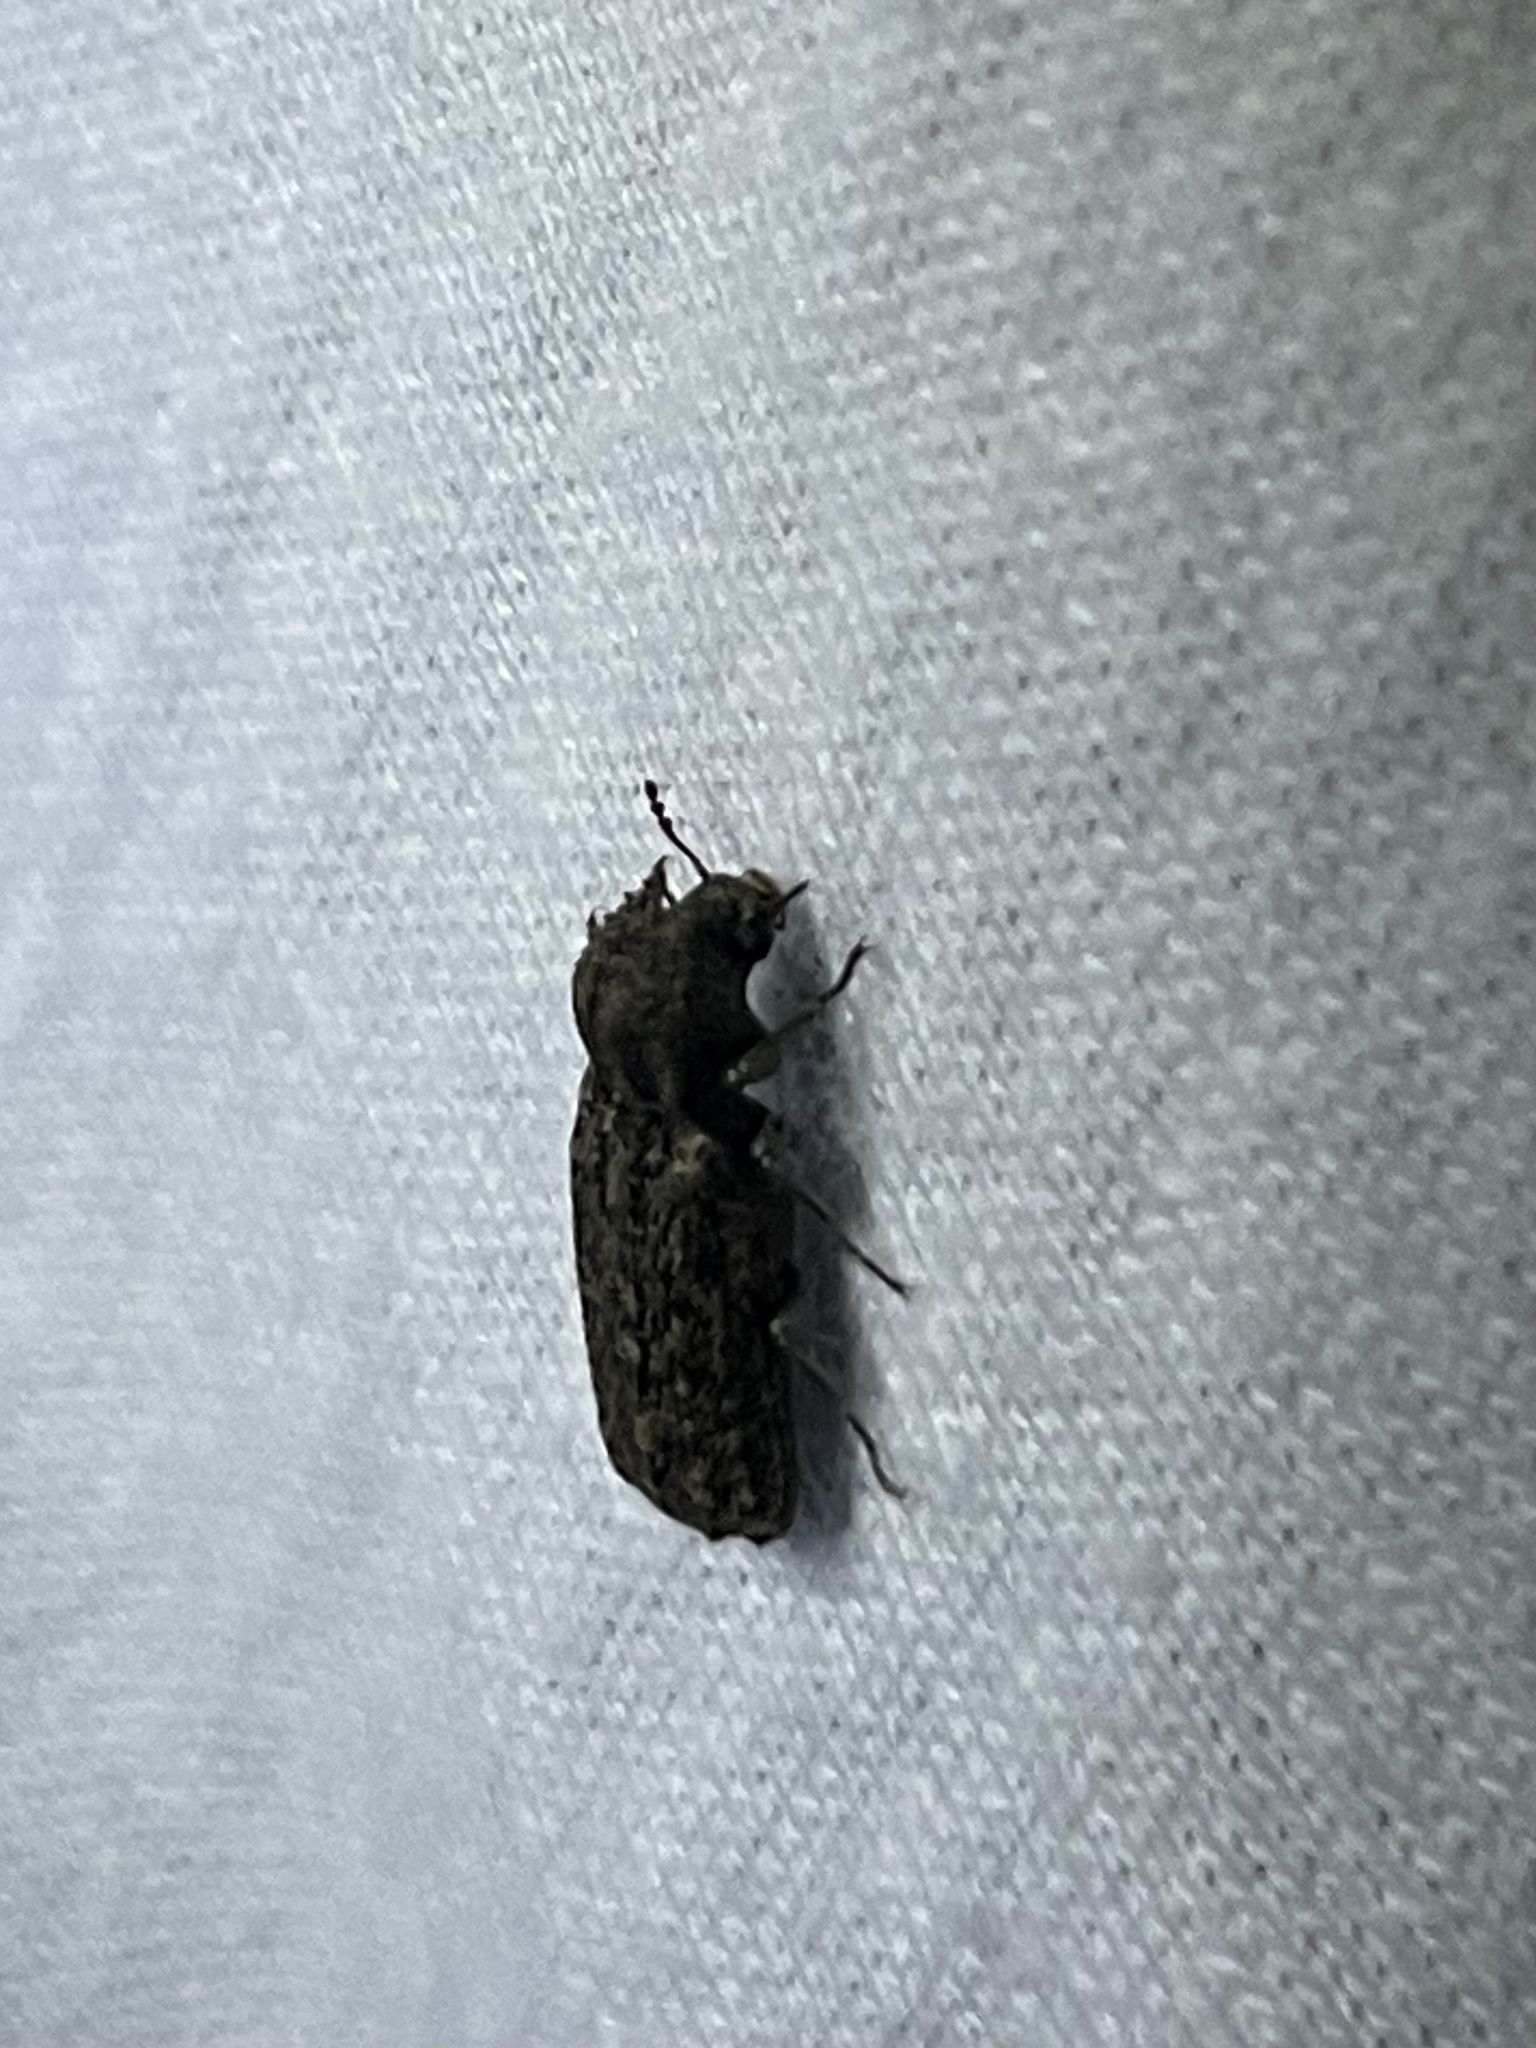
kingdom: Animalia
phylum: Arthropoda
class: Insecta
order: Coleoptera
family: Bostrichidae
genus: Lichenophanes
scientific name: Lichenophanes bicornis
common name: Two-horned powder-post beetle
